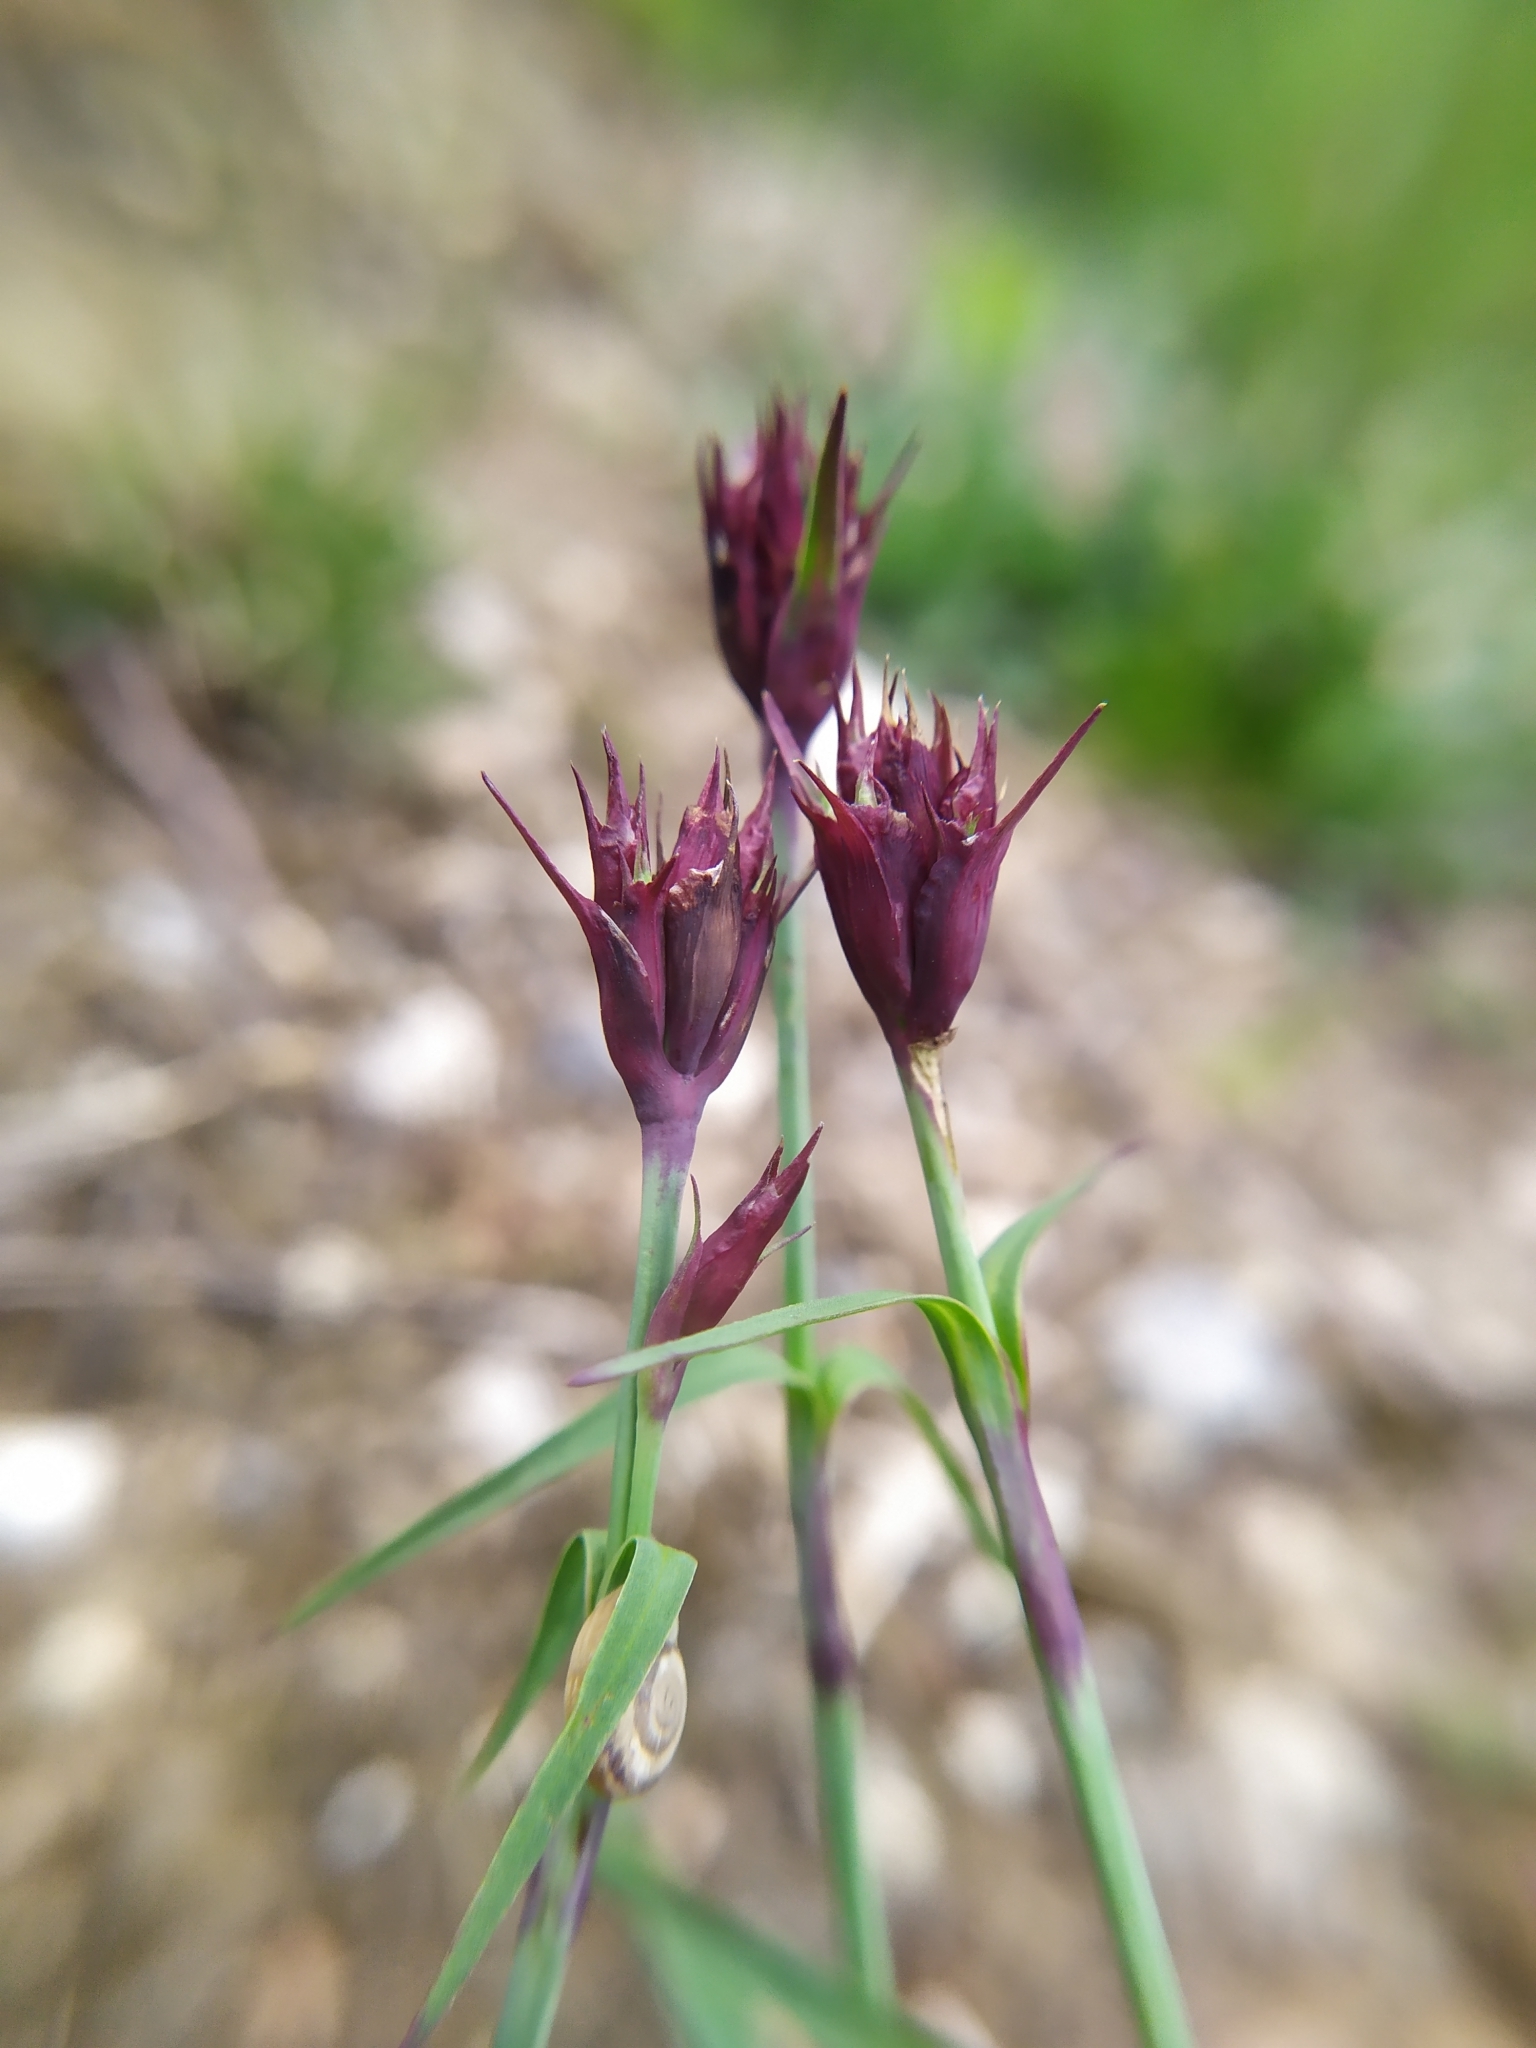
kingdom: Plantae
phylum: Tracheophyta
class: Magnoliopsida
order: Caryophyllales
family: Caryophyllaceae
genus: Dianthus
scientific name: Dianthus carthusianorum
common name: Carthusian pink
